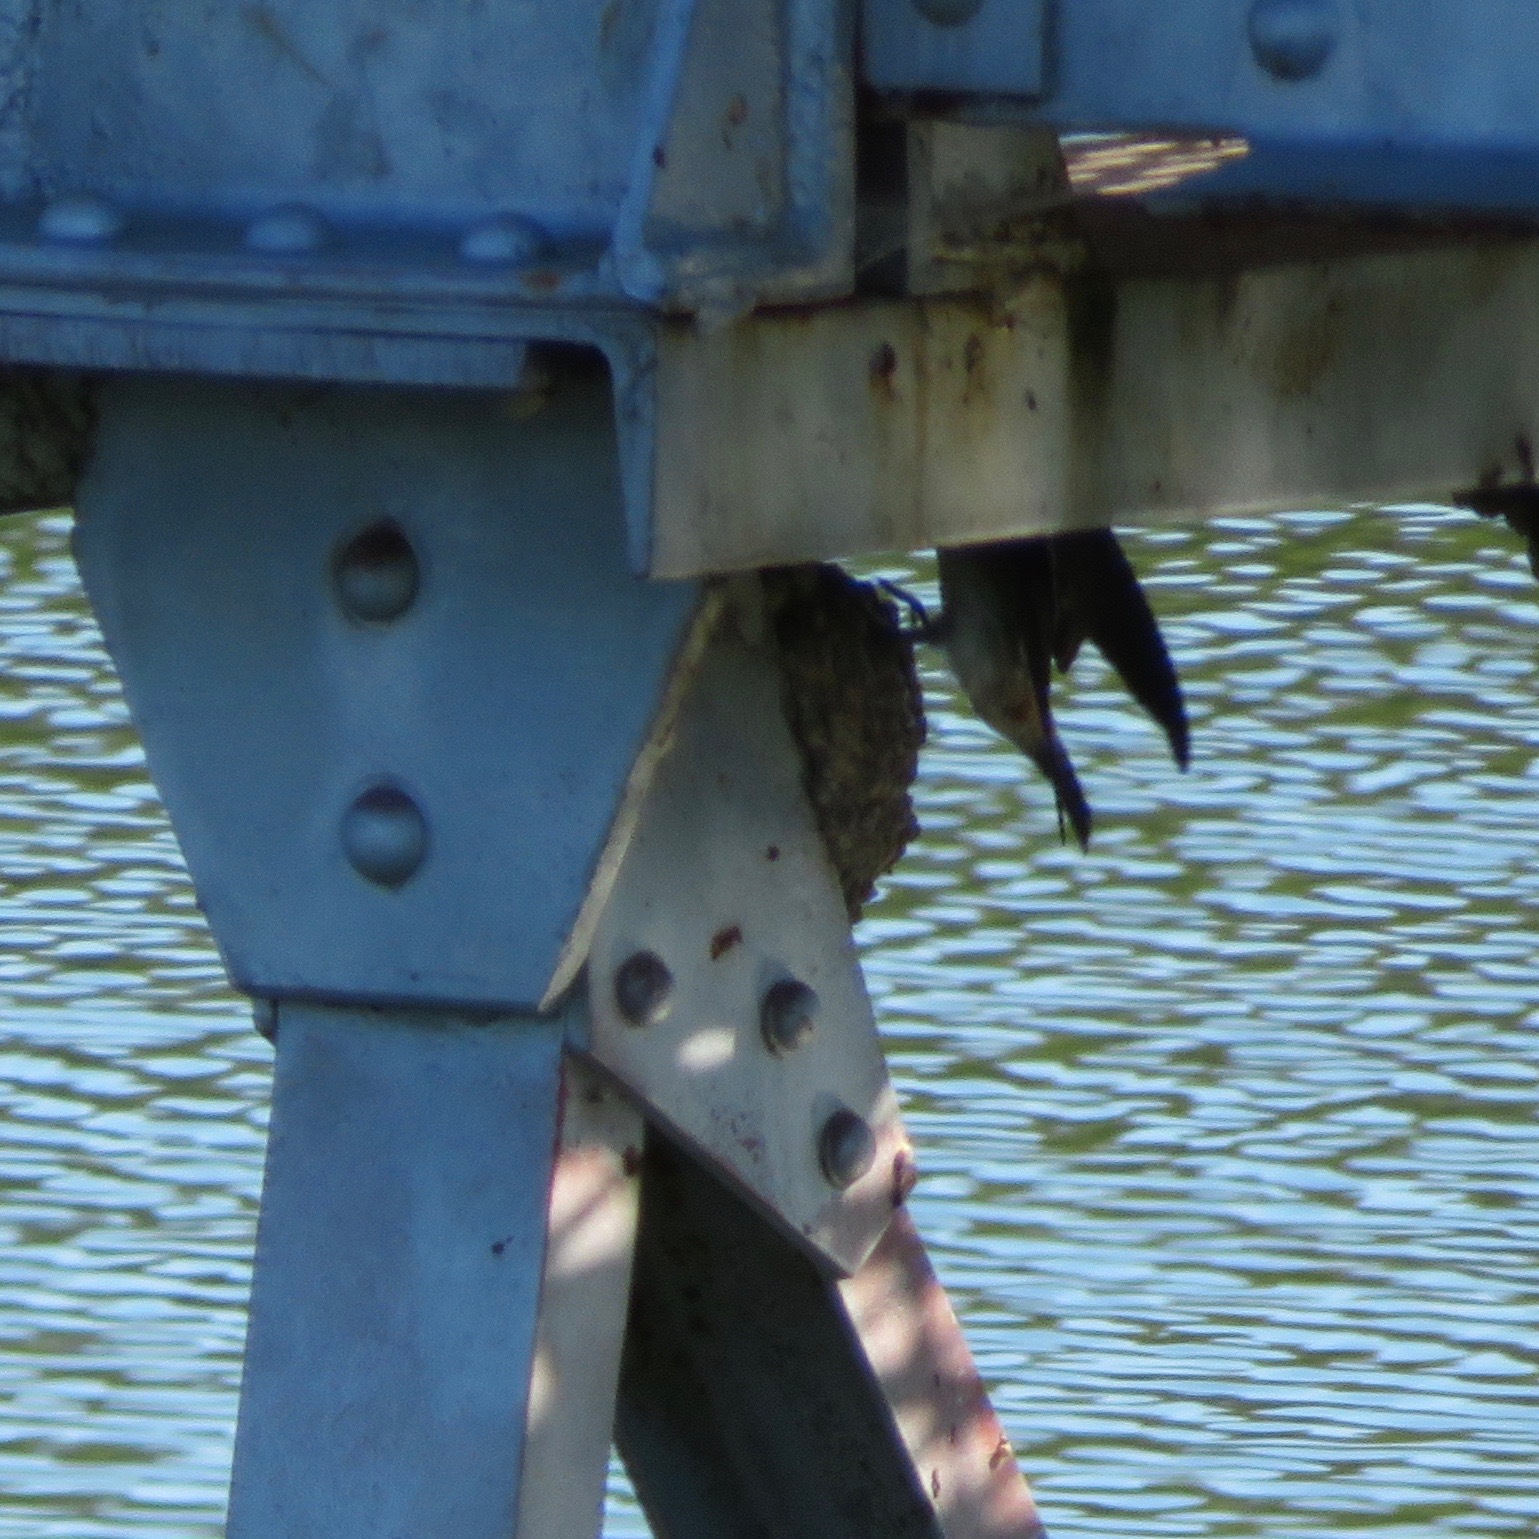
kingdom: Animalia
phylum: Chordata
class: Aves
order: Passeriformes
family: Hirundinidae
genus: Petrochelidon
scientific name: Petrochelidon pyrrhonota
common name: American cliff swallow
